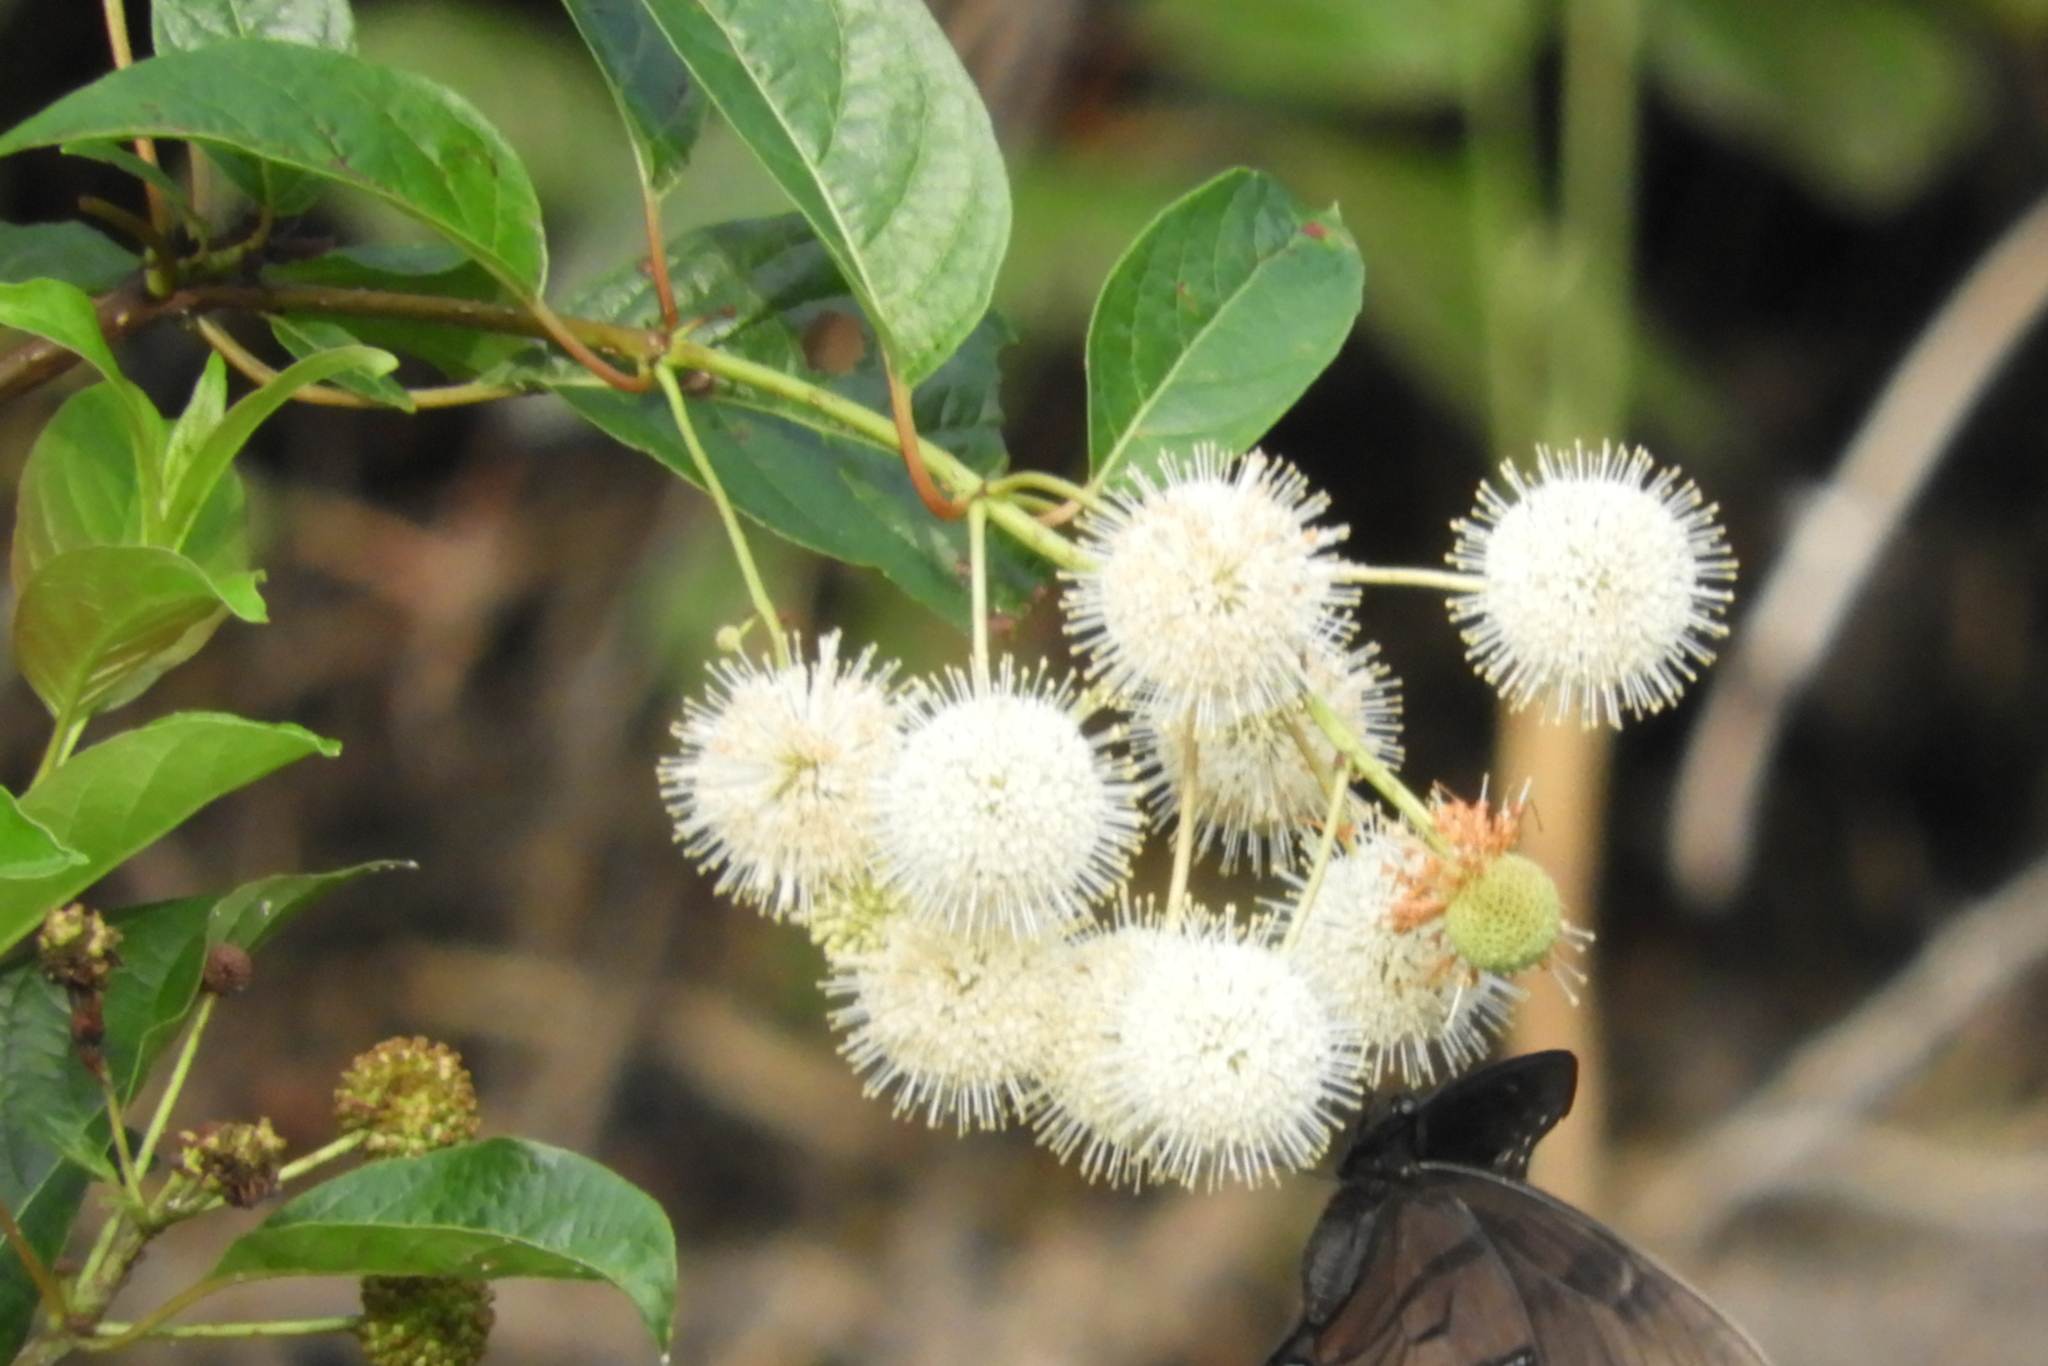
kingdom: Plantae
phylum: Tracheophyta
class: Magnoliopsida
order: Gentianales
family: Rubiaceae
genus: Cephalanthus
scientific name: Cephalanthus occidentalis
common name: Button-willow
